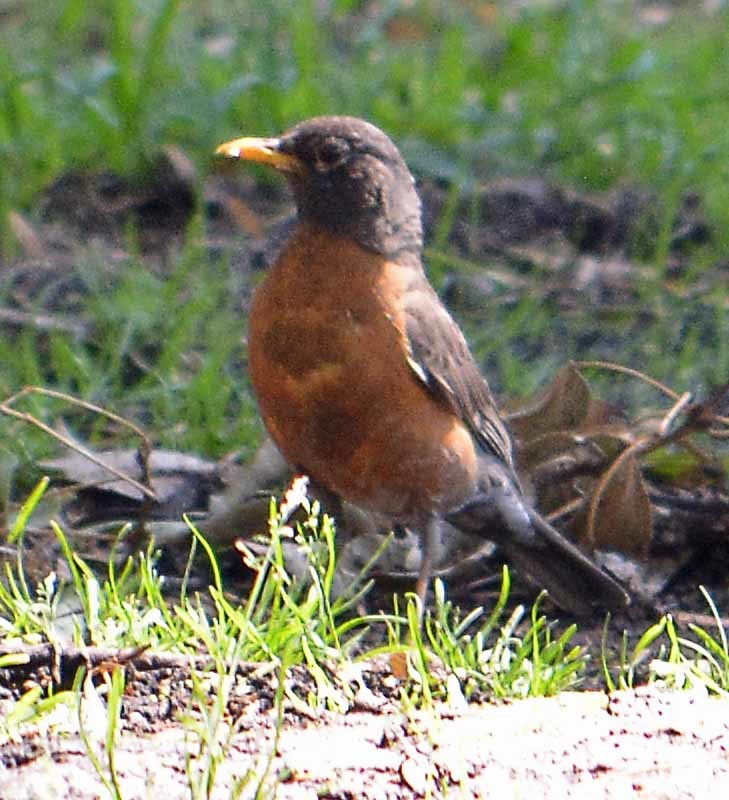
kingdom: Animalia
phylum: Chordata
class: Aves
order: Passeriformes
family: Turdidae
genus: Turdus
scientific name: Turdus migratorius
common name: American robin
